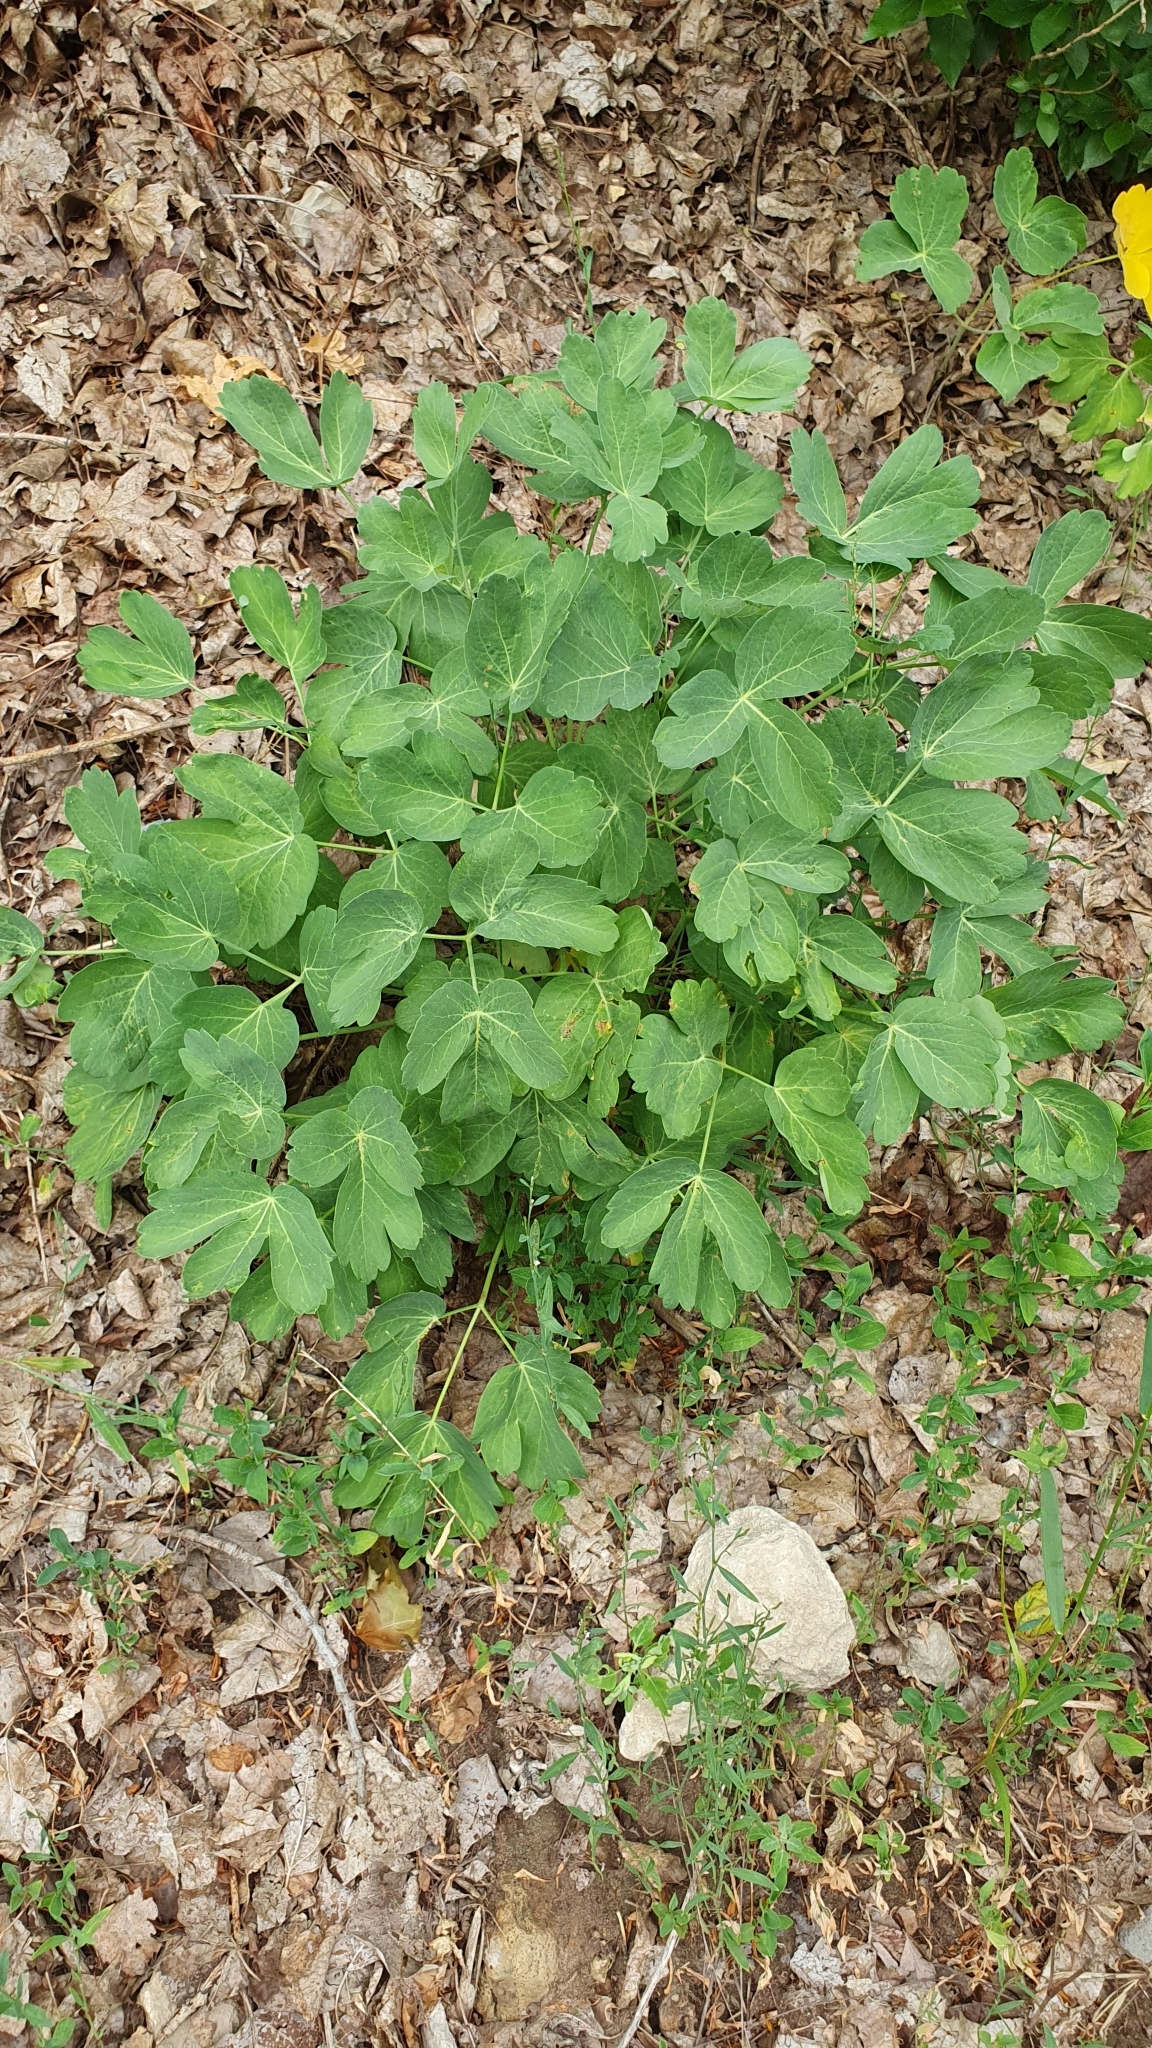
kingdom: Plantae
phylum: Tracheophyta
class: Magnoliopsida
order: Apiales
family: Apiaceae
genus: Laser
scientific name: Laser trilobum
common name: Laser
